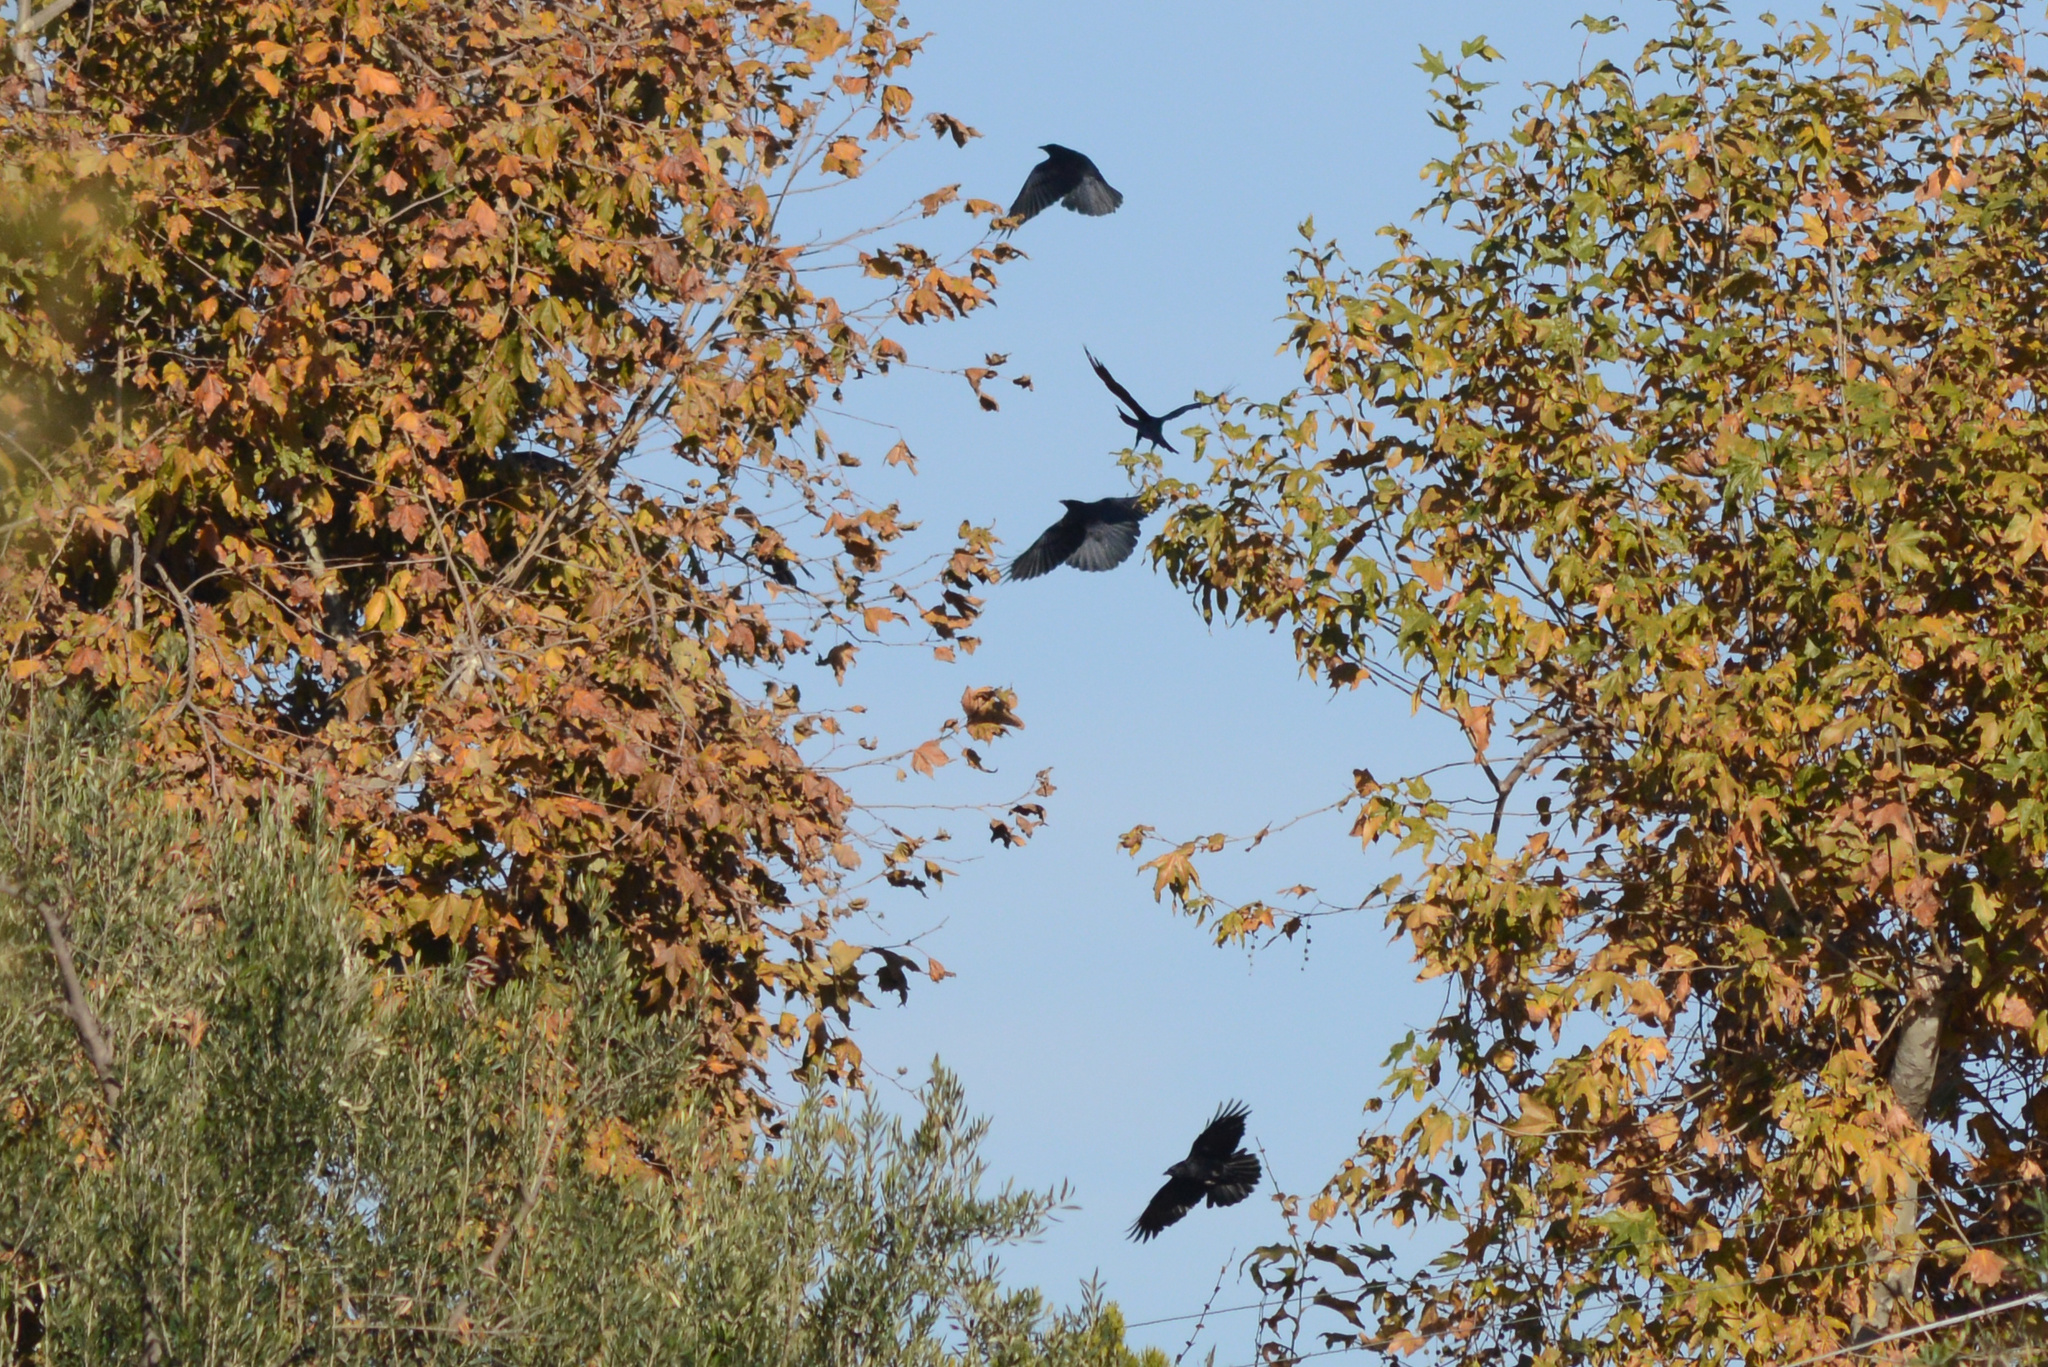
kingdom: Animalia
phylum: Chordata
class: Aves
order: Passeriformes
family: Corvidae
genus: Corvus
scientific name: Corvus brachyrhynchos
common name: American crow
